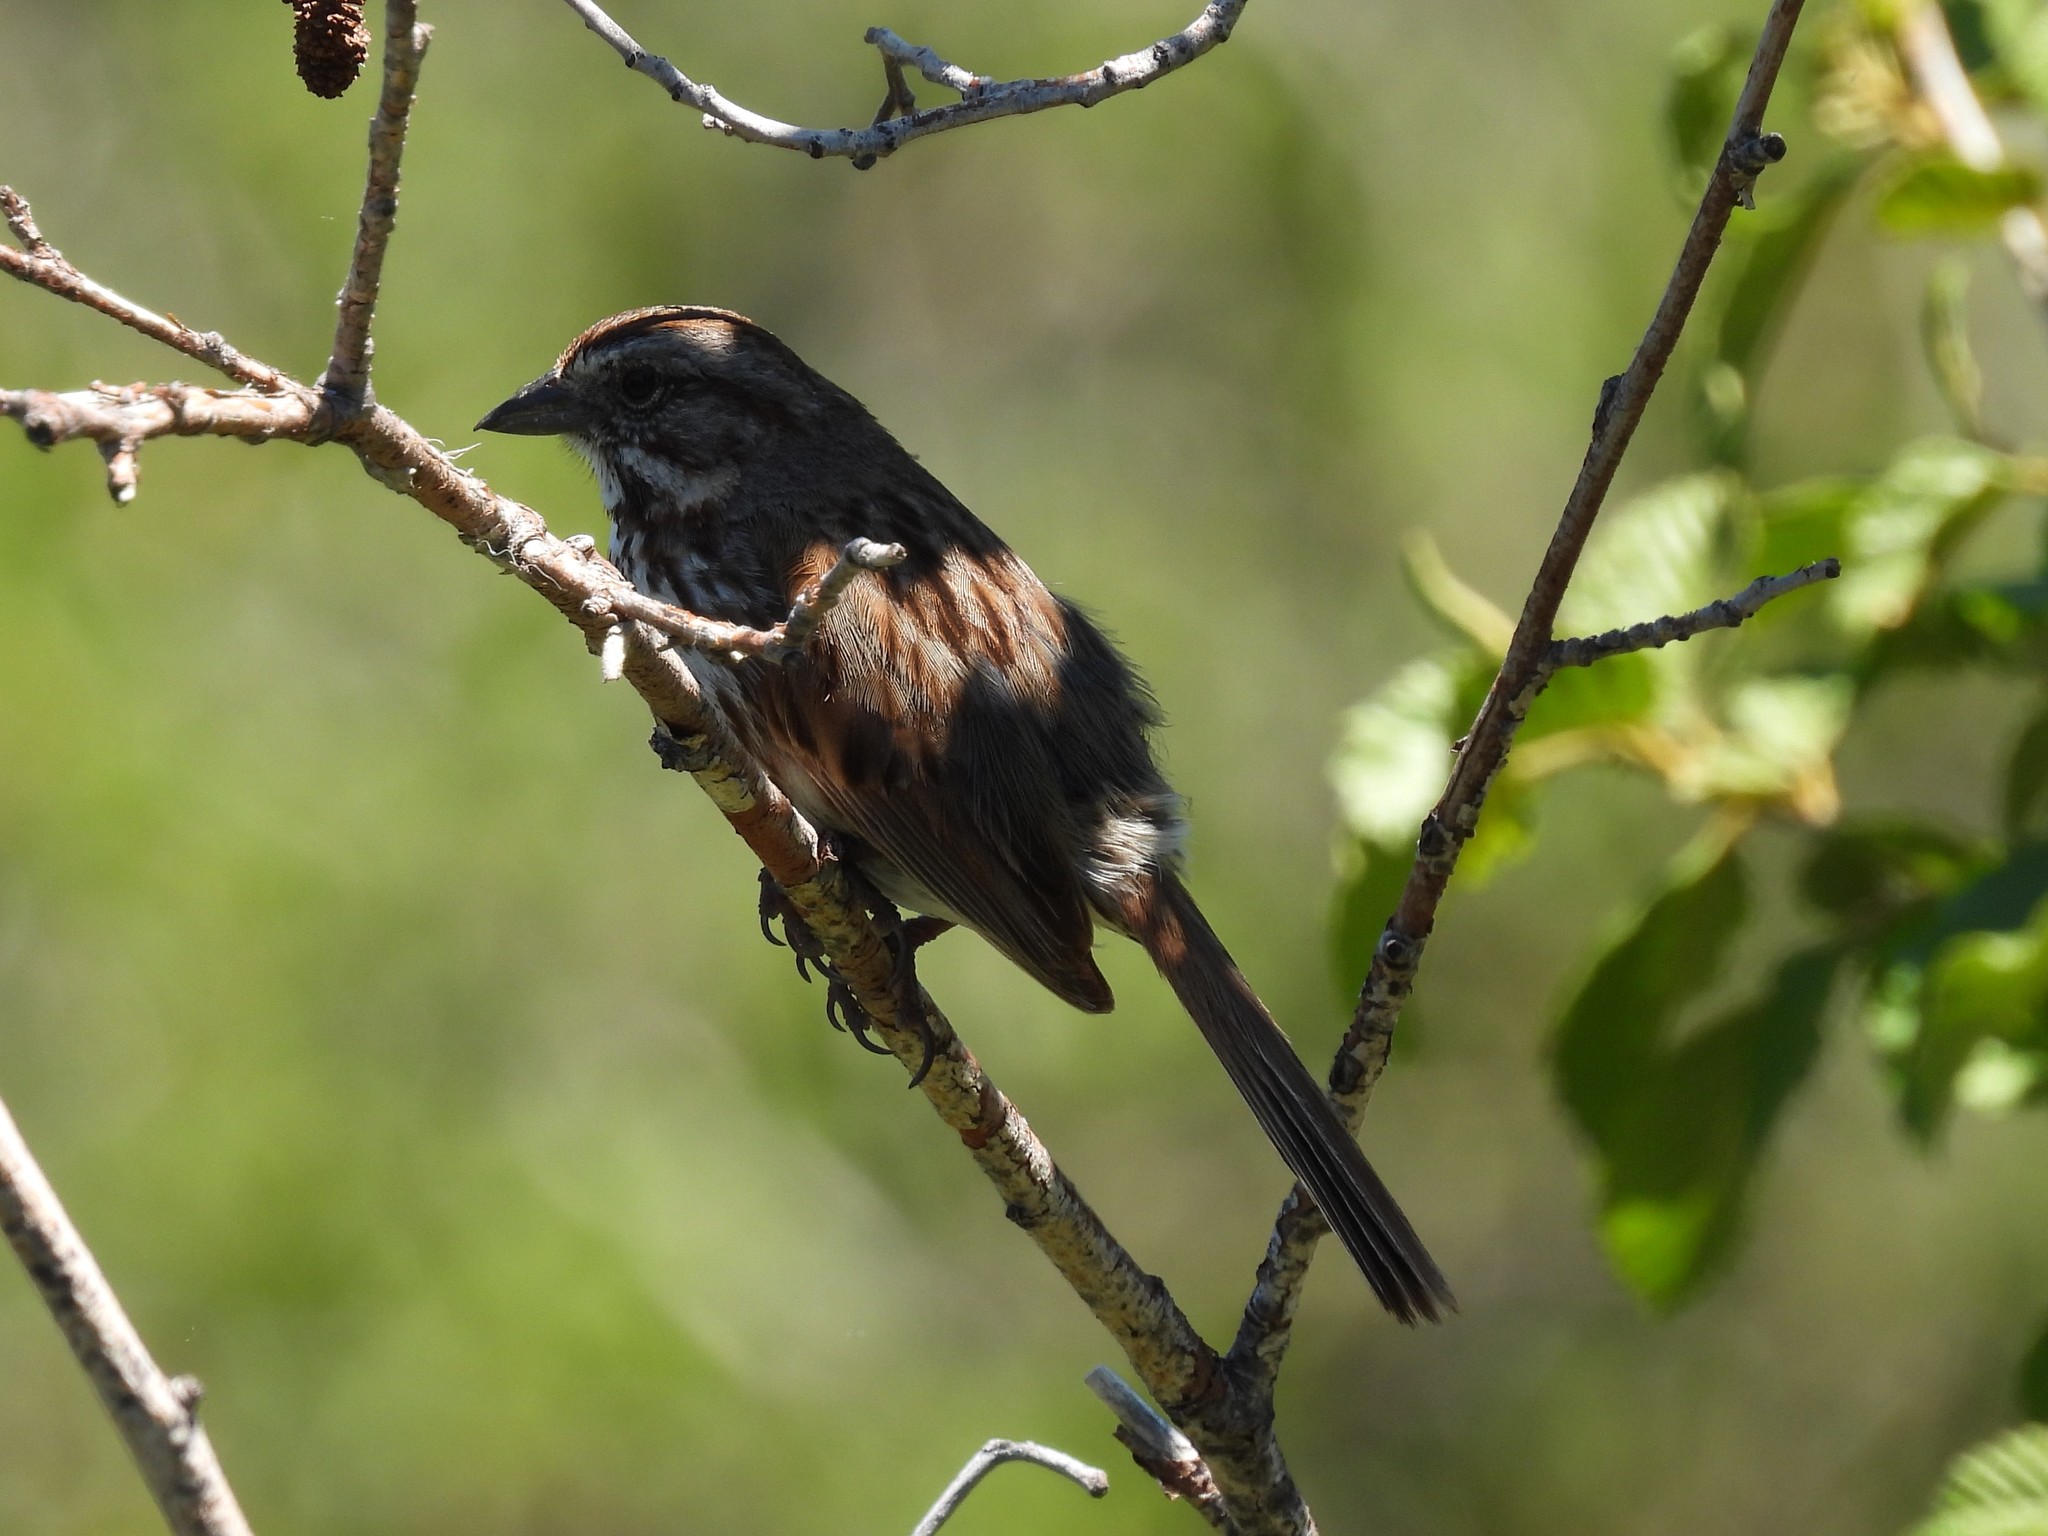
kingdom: Animalia
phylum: Chordata
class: Aves
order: Passeriformes
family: Passerellidae
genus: Melospiza
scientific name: Melospiza melodia
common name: Song sparrow
